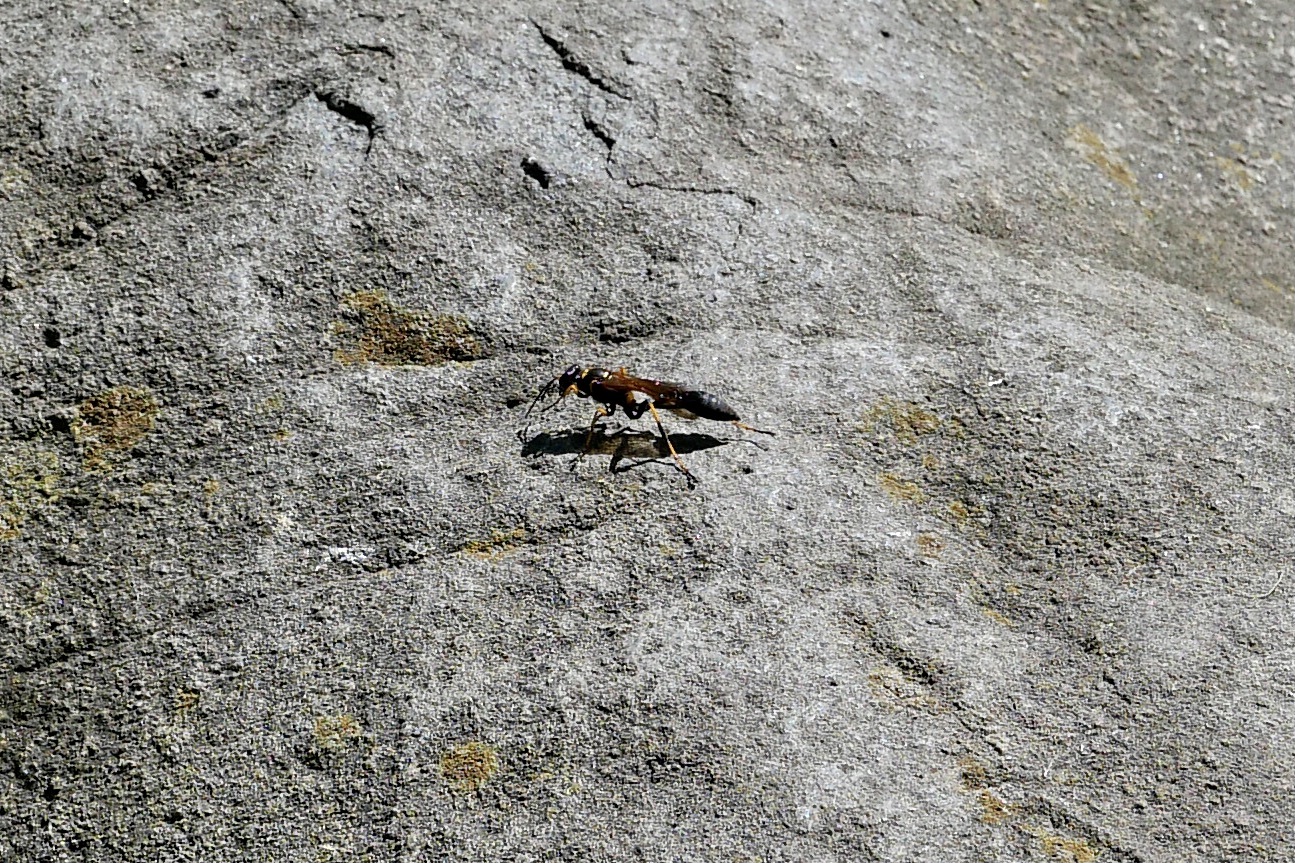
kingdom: Animalia
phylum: Arthropoda
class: Insecta
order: Hymenoptera
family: Sphecidae
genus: Sceliphron
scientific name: Sceliphron caementarium
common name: Mud dauber
